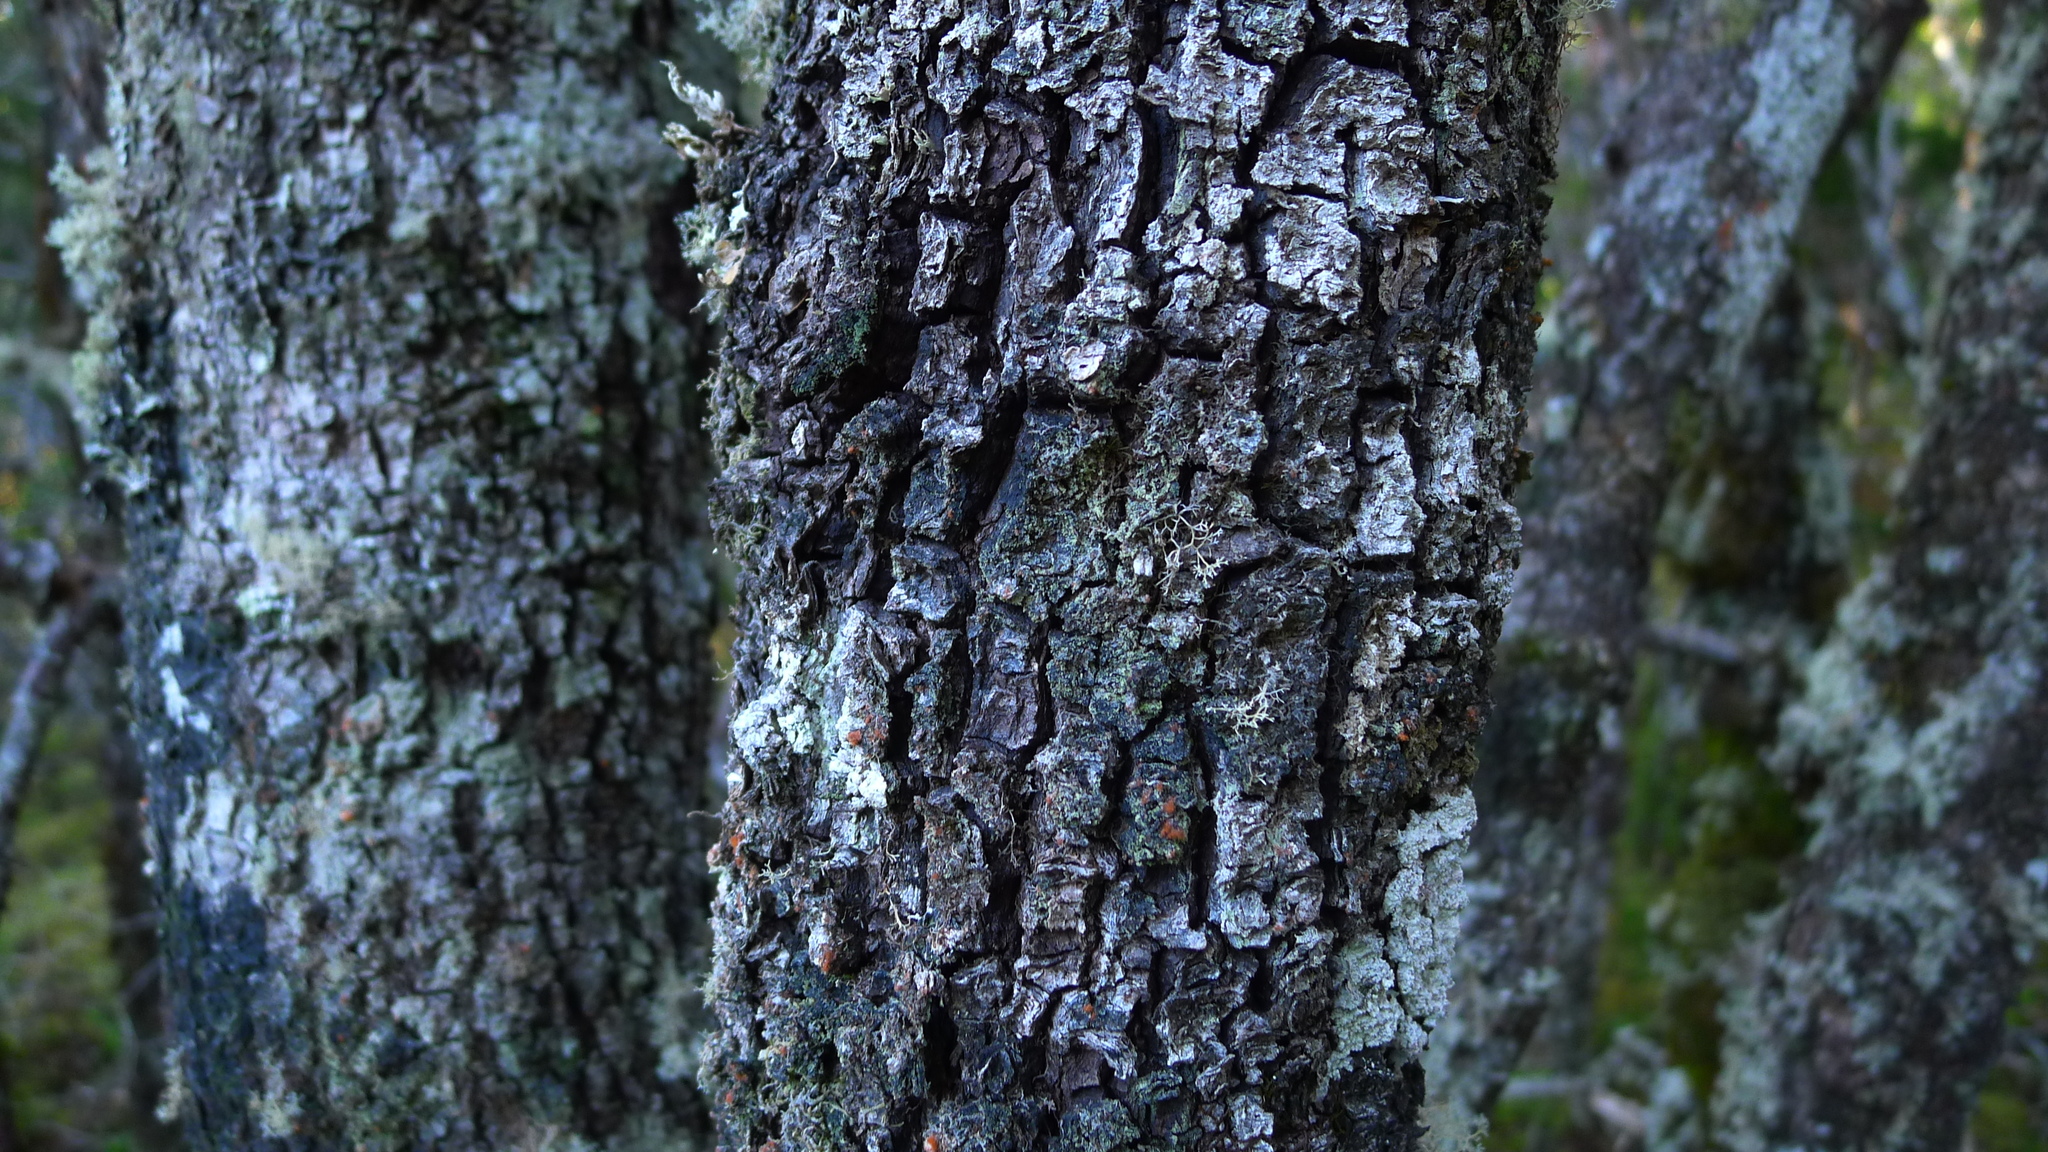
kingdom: Plantae
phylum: Tracheophyta
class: Magnoliopsida
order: Fagales
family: Nothofagaceae
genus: Nothofagus
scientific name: Nothofagus cliffortioides
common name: Mountain beech
